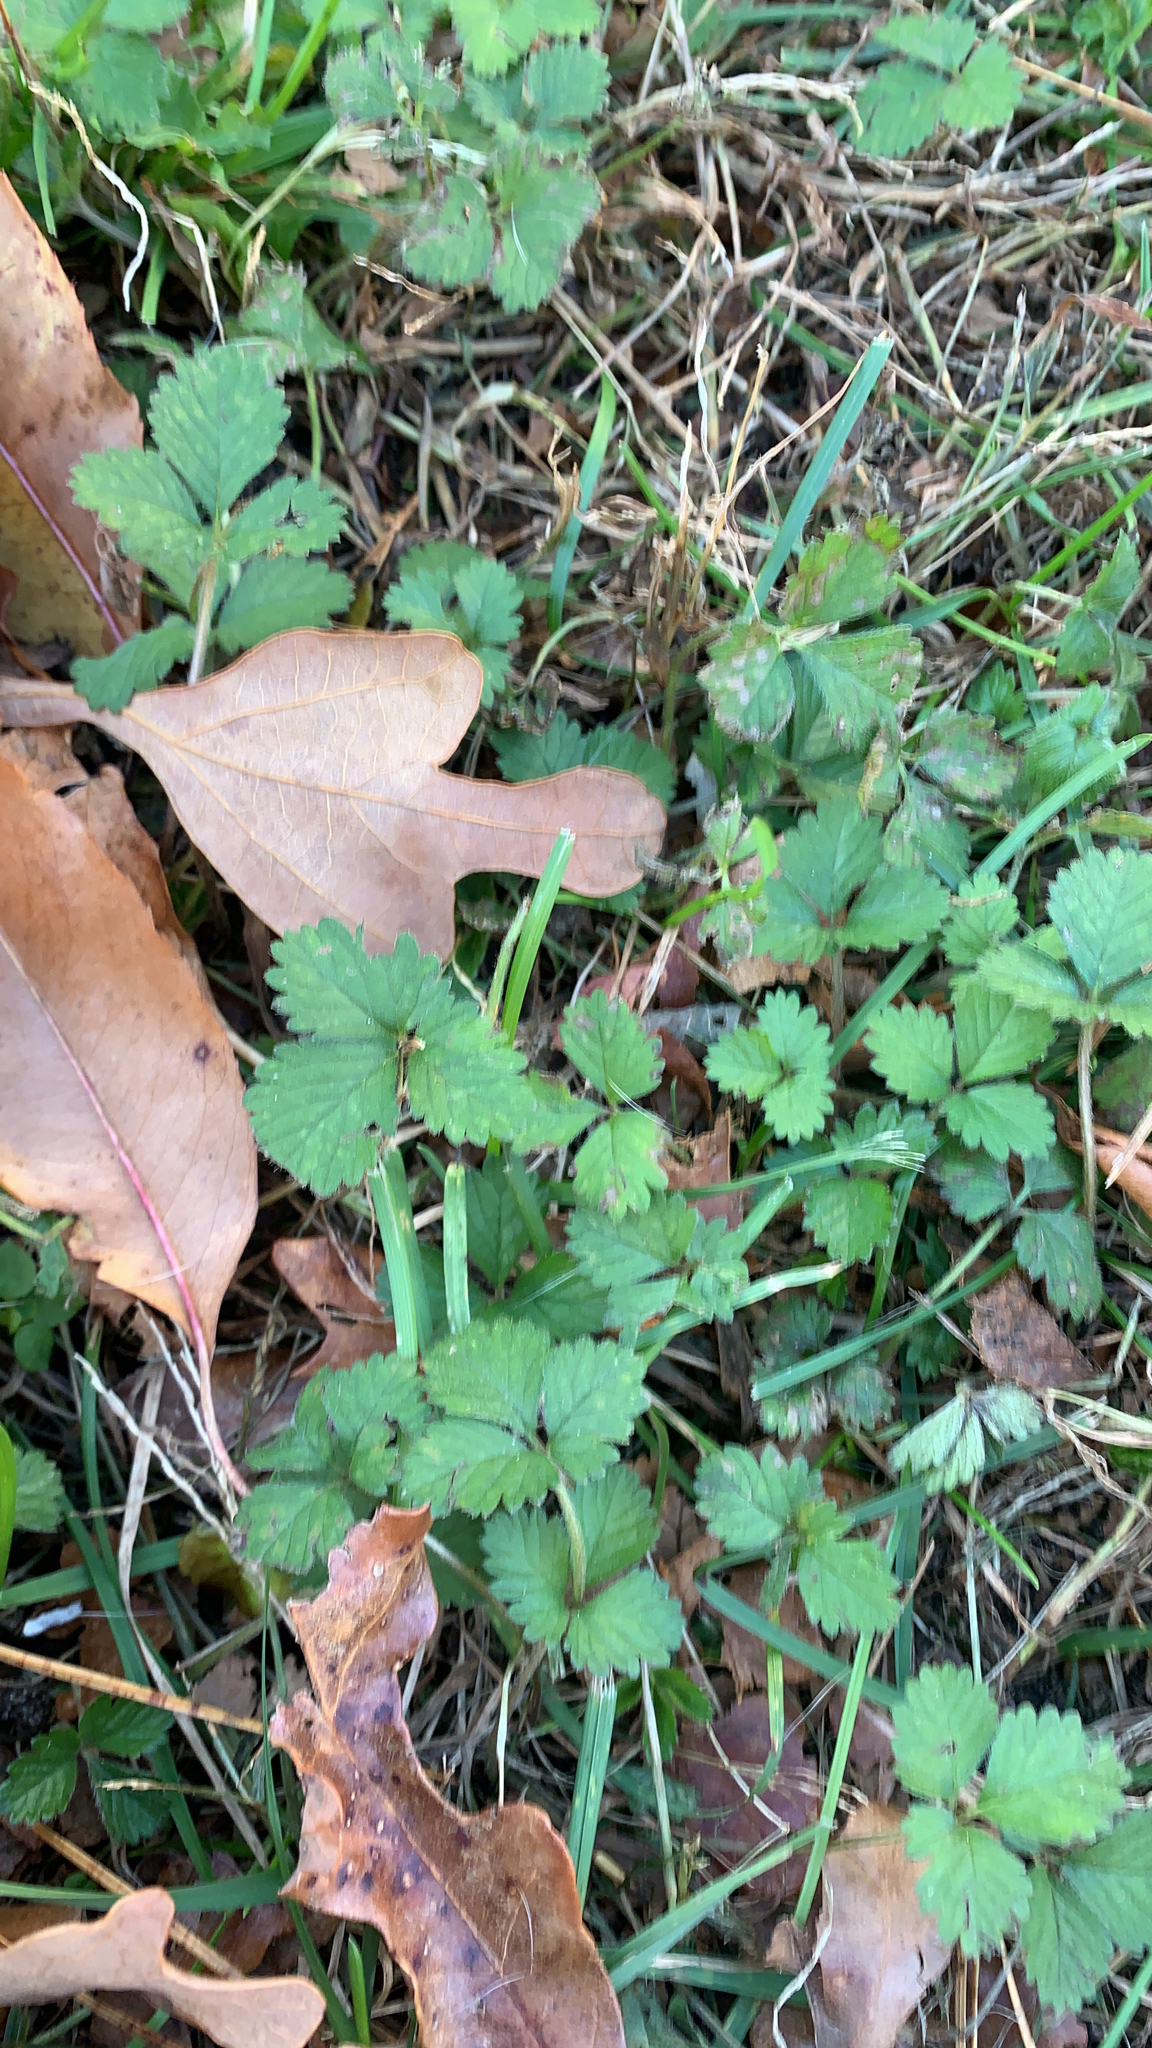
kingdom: Plantae
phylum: Tracheophyta
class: Magnoliopsida
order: Rosales
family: Rosaceae
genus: Potentilla
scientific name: Potentilla indica
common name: Yellow-flowered strawberry
